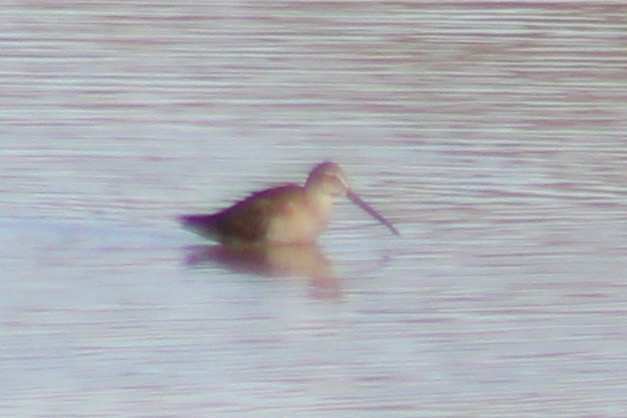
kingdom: Animalia
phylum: Chordata
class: Aves
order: Charadriiformes
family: Scolopacidae
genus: Limnodromus
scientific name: Limnodromus scolopaceus
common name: Long-billed dowitcher
